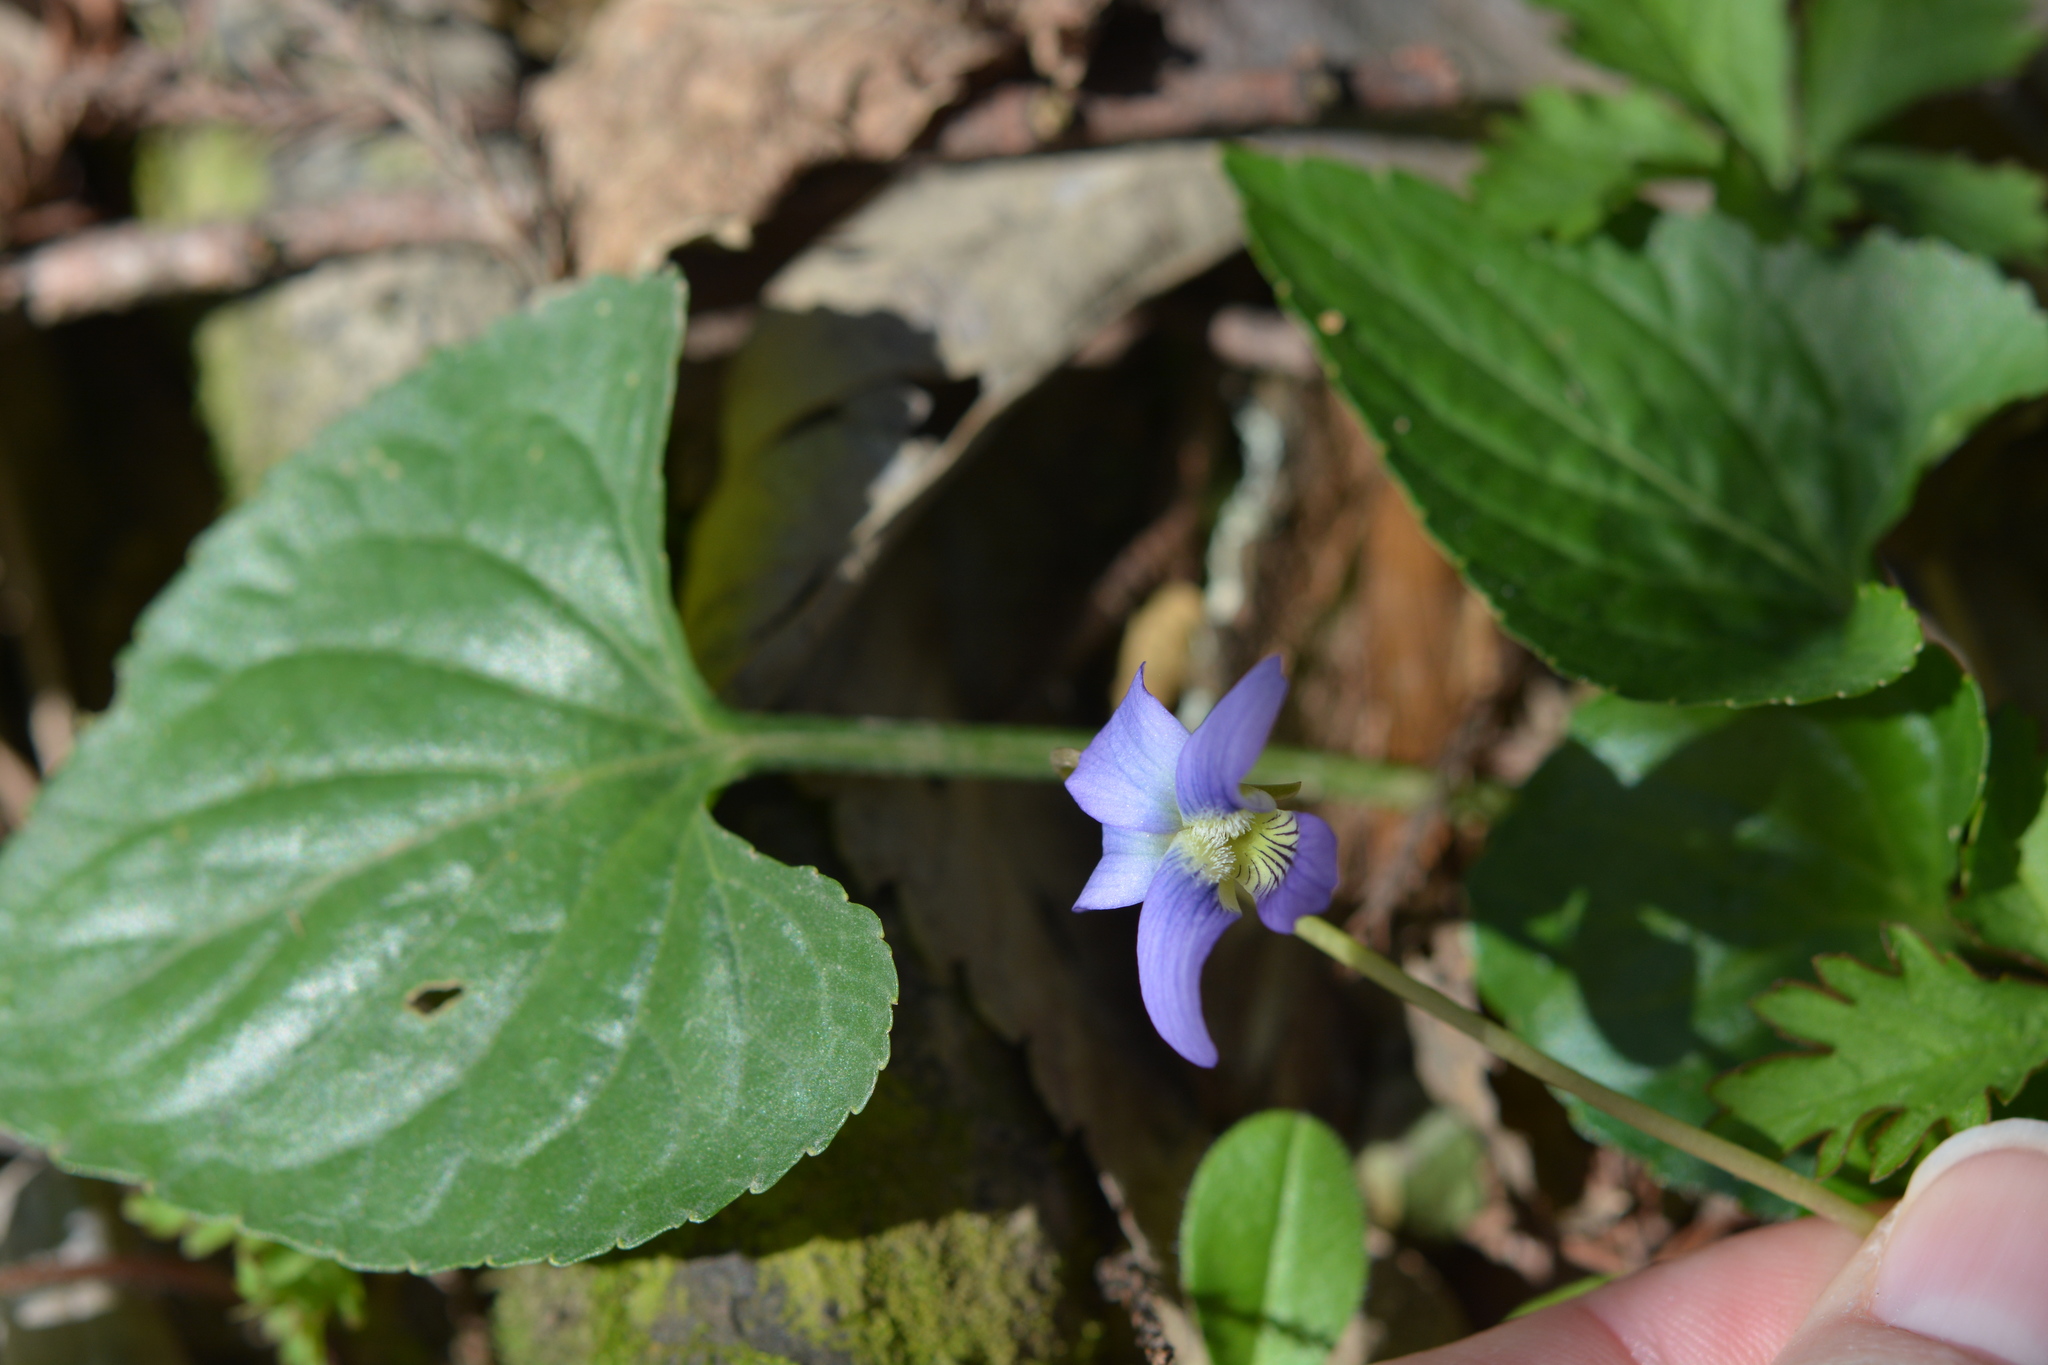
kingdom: Plantae
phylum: Tracheophyta
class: Magnoliopsida
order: Malpighiales
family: Violaceae
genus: Viola
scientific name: Viola sororia
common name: Dooryard violet
